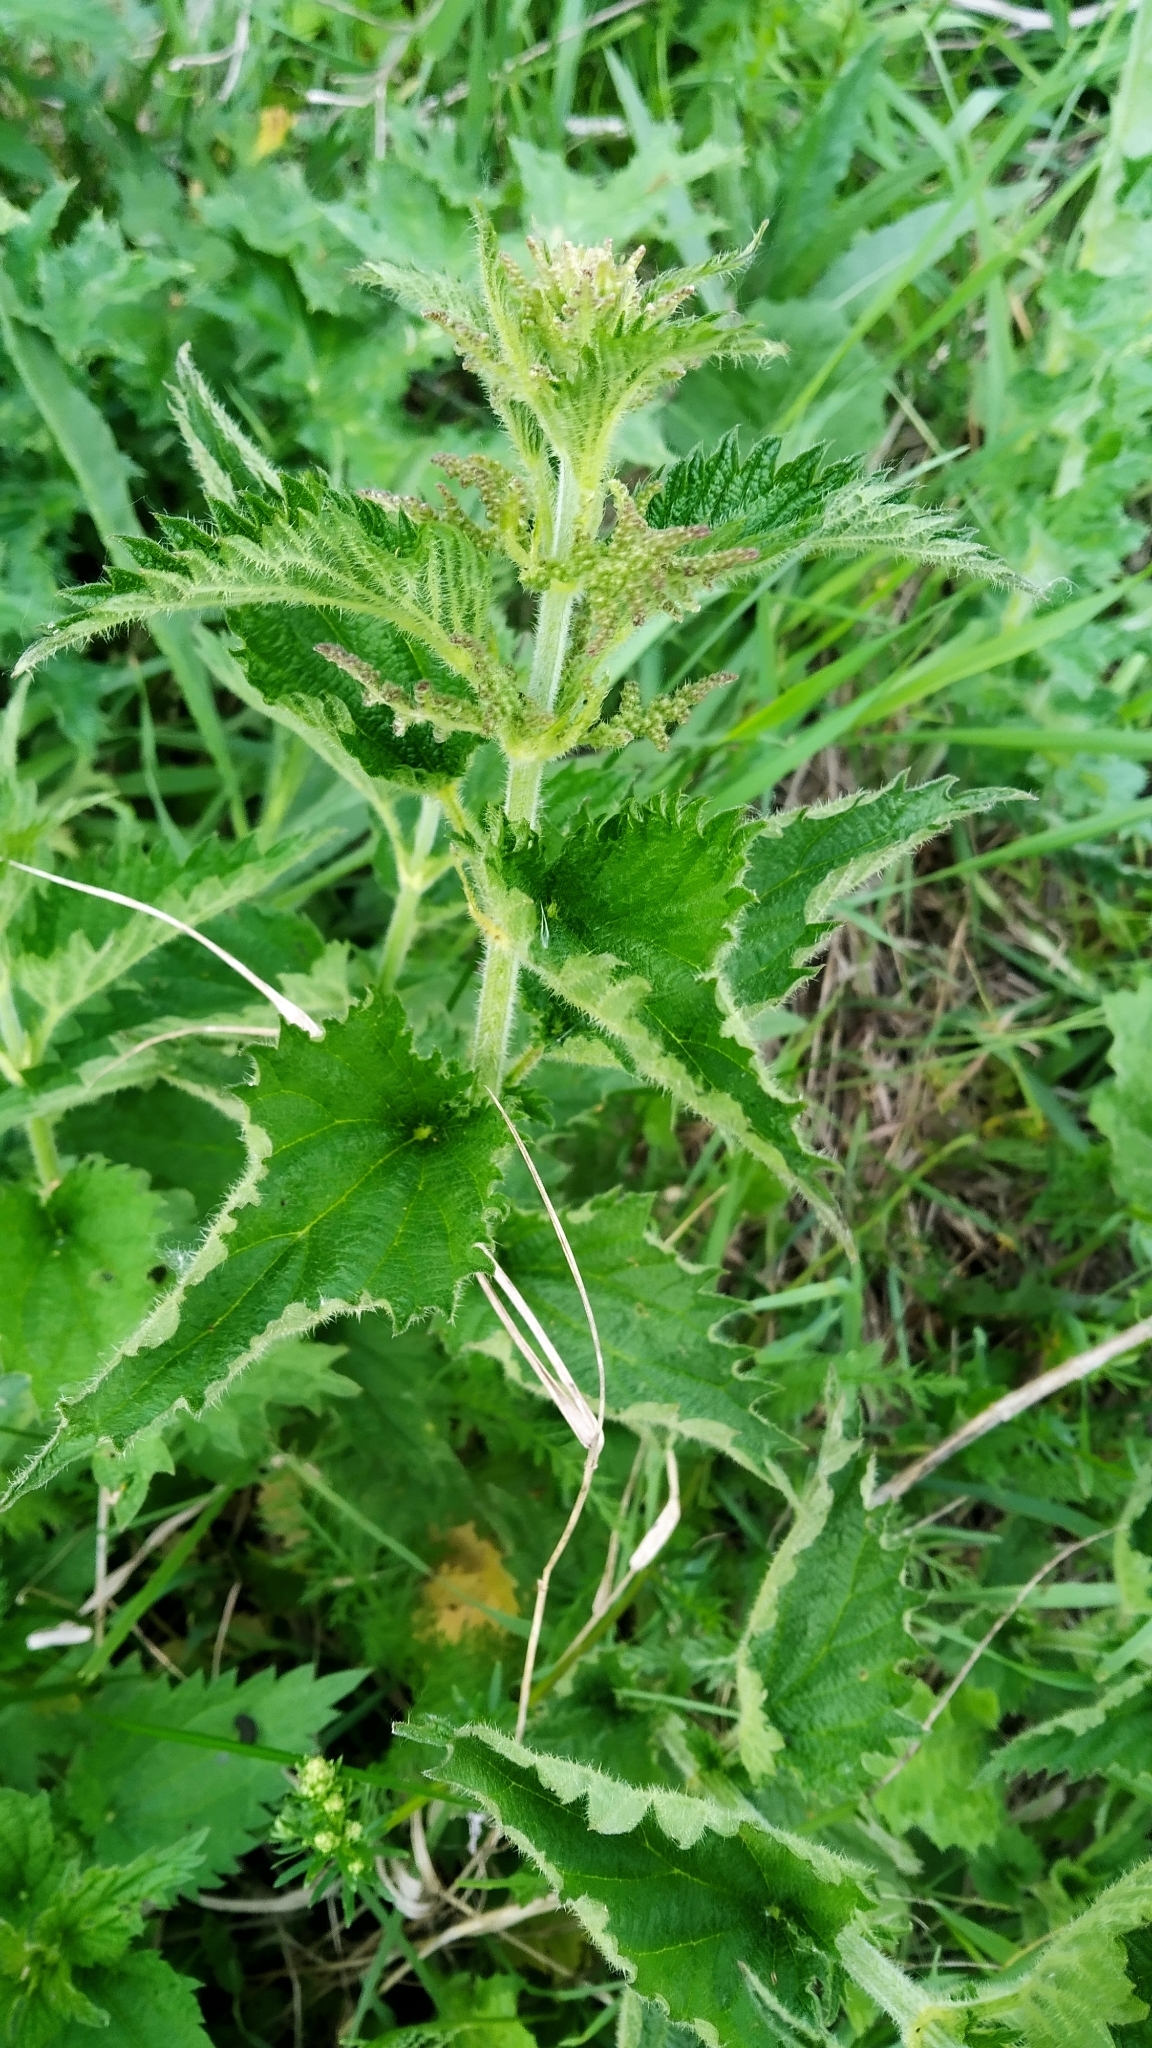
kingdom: Plantae
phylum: Tracheophyta
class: Magnoliopsida
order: Rosales
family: Urticaceae
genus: Urtica
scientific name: Urtica dioica
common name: Common nettle
